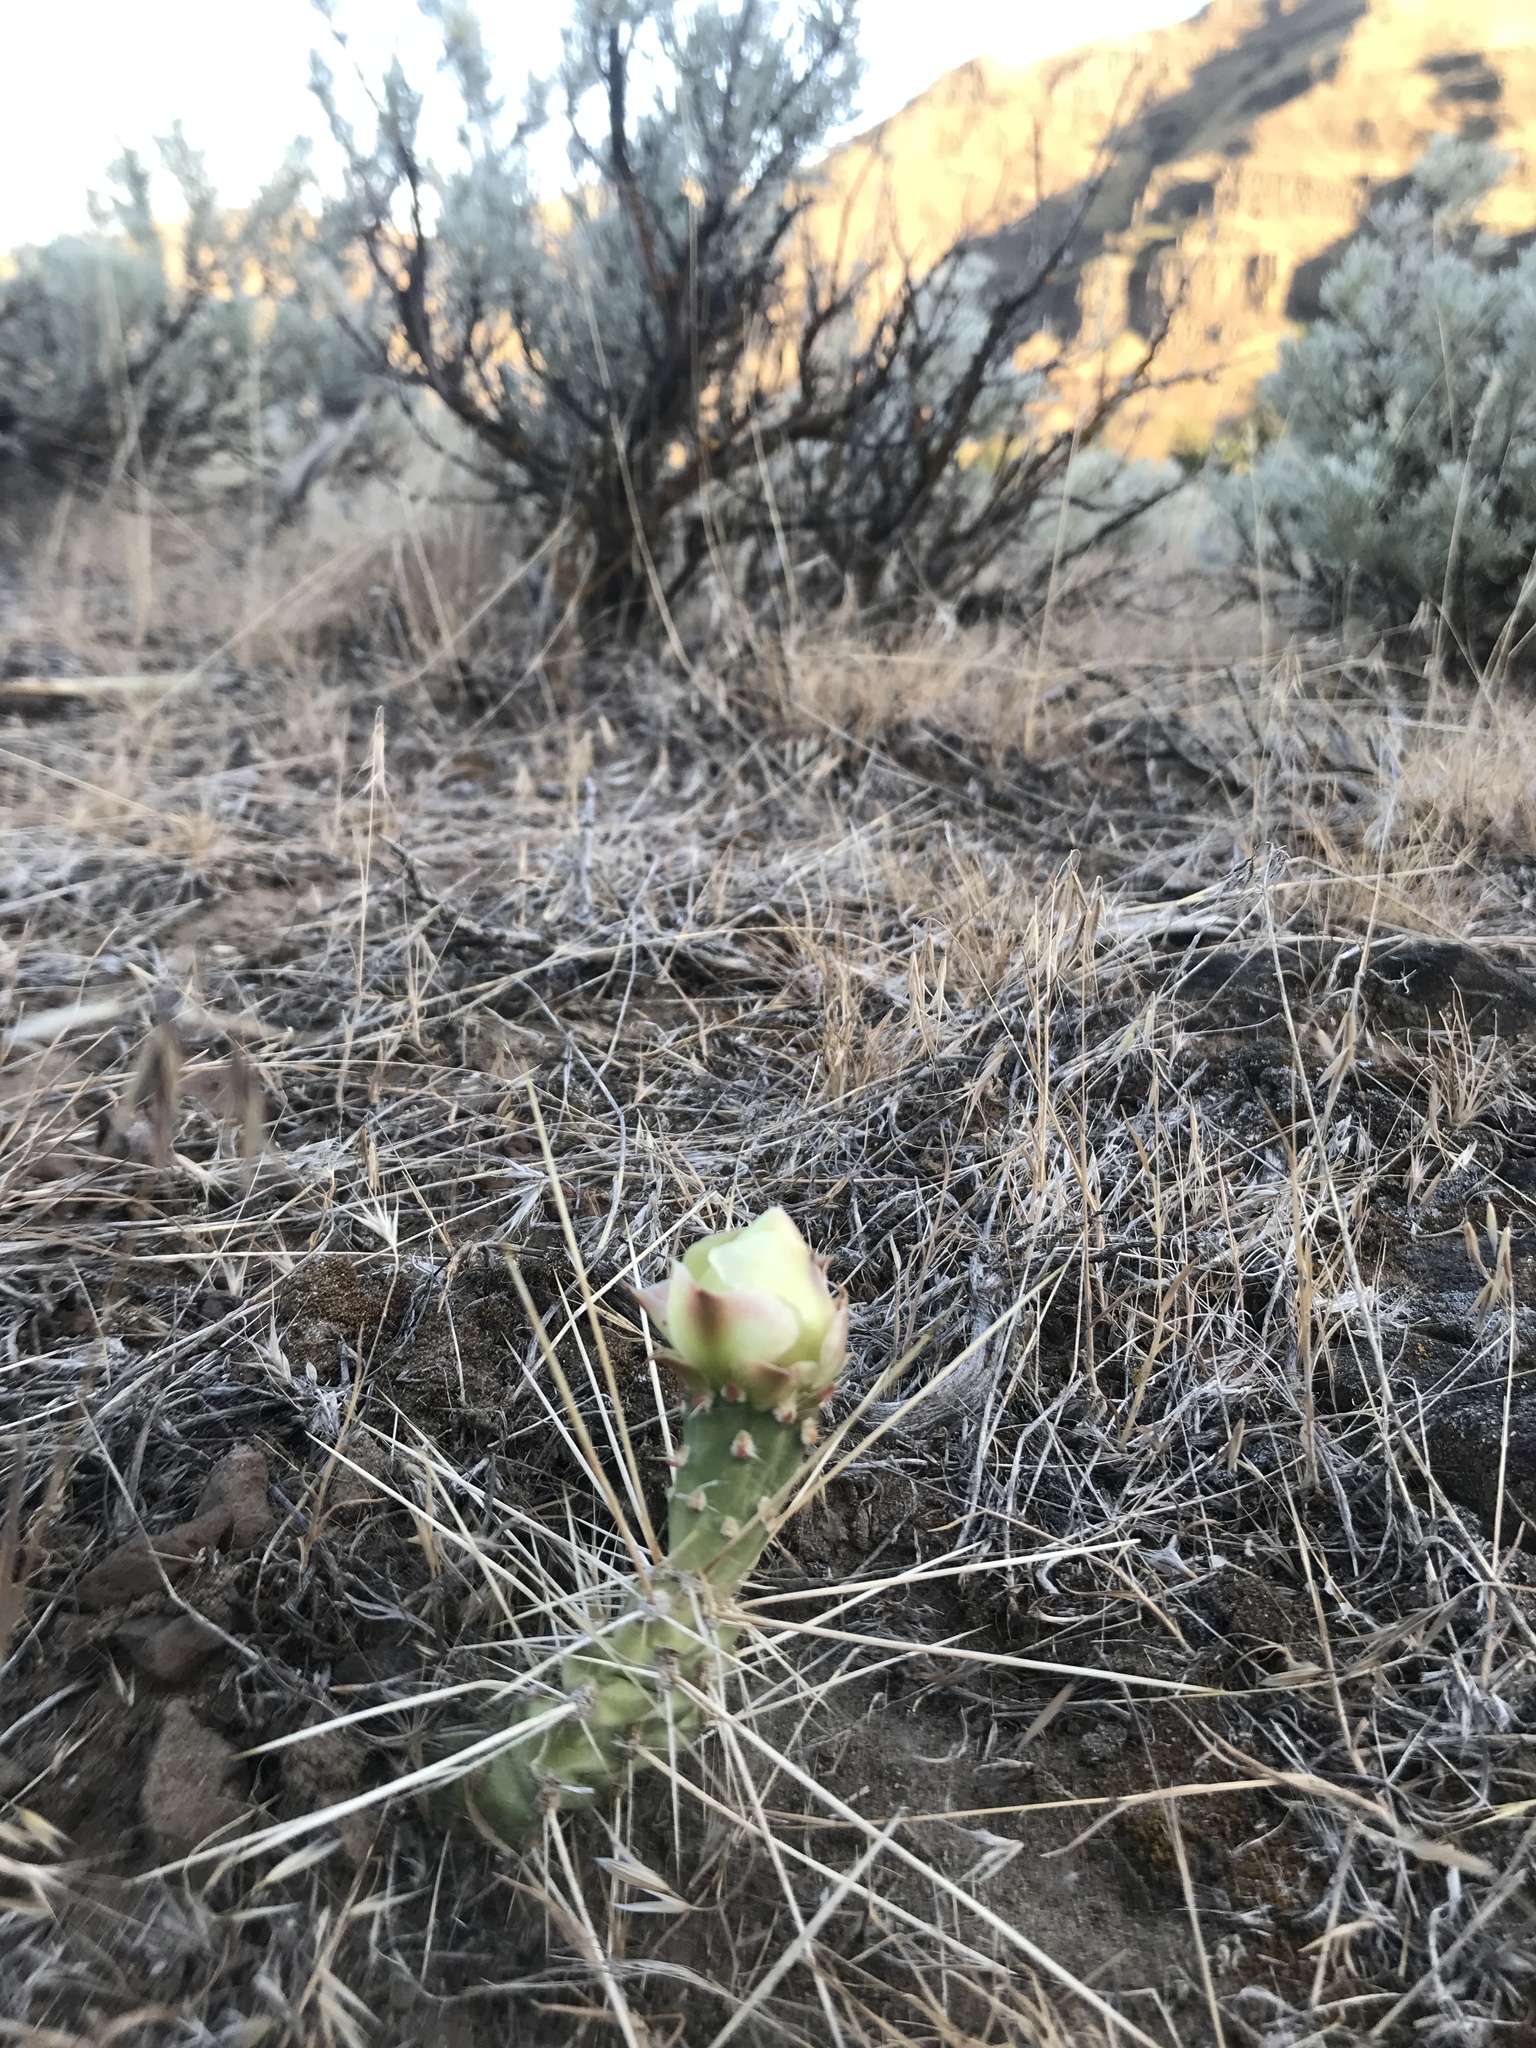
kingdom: Plantae
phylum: Tracheophyta
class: Magnoliopsida
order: Caryophyllales
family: Cactaceae
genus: Opuntia
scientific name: Opuntia columbiana
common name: Columbia prickly-pear
